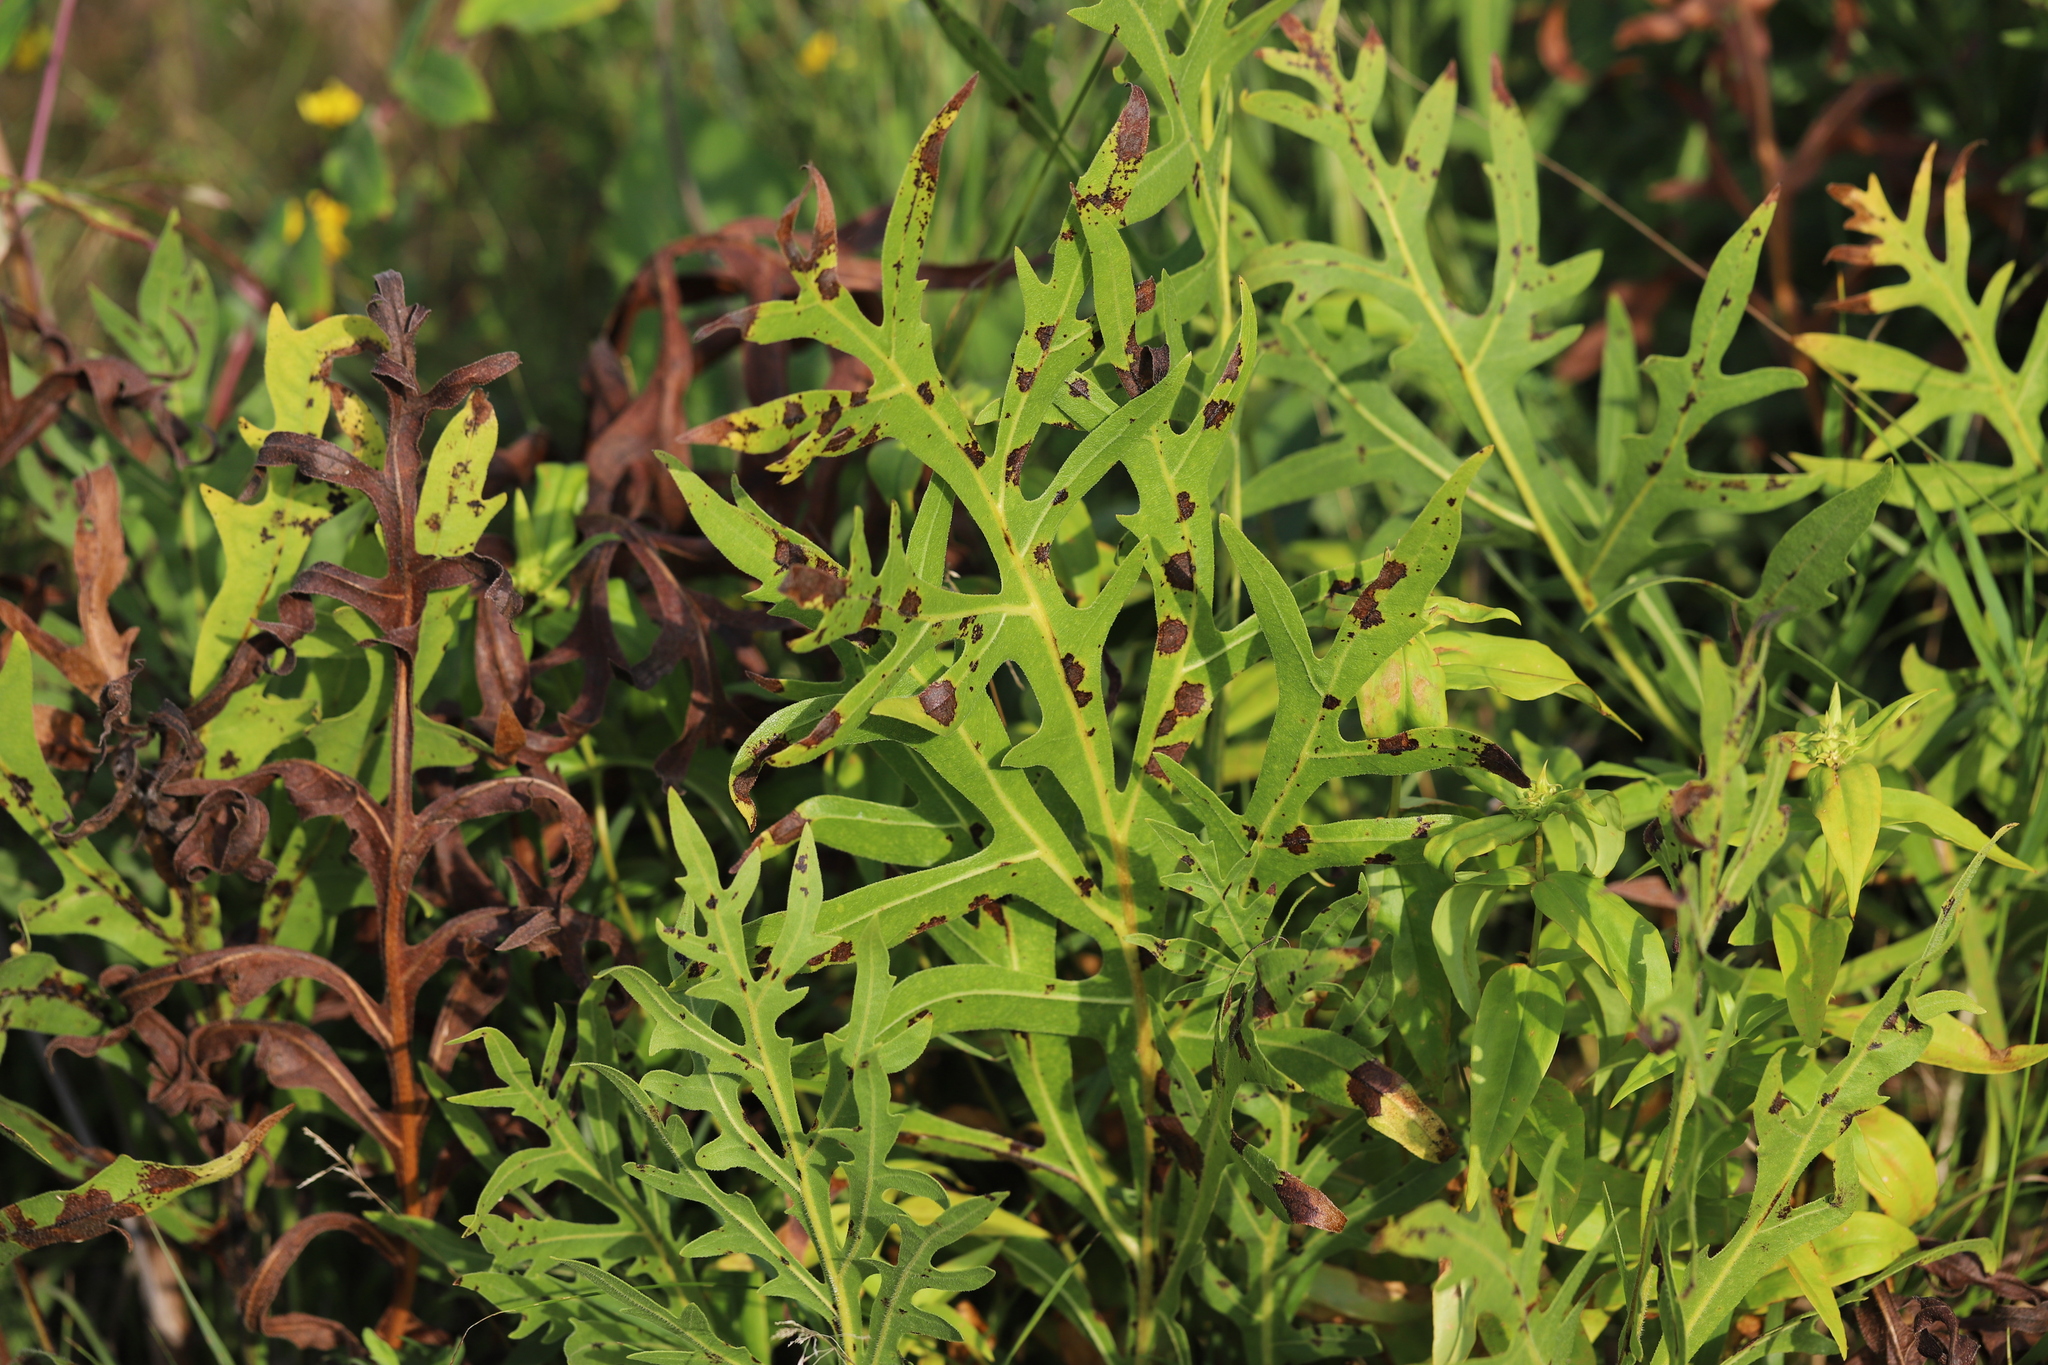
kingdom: Plantae
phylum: Tracheophyta
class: Magnoliopsida
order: Asterales
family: Asteraceae
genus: Silphium
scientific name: Silphium laciniatum
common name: Polarplant
